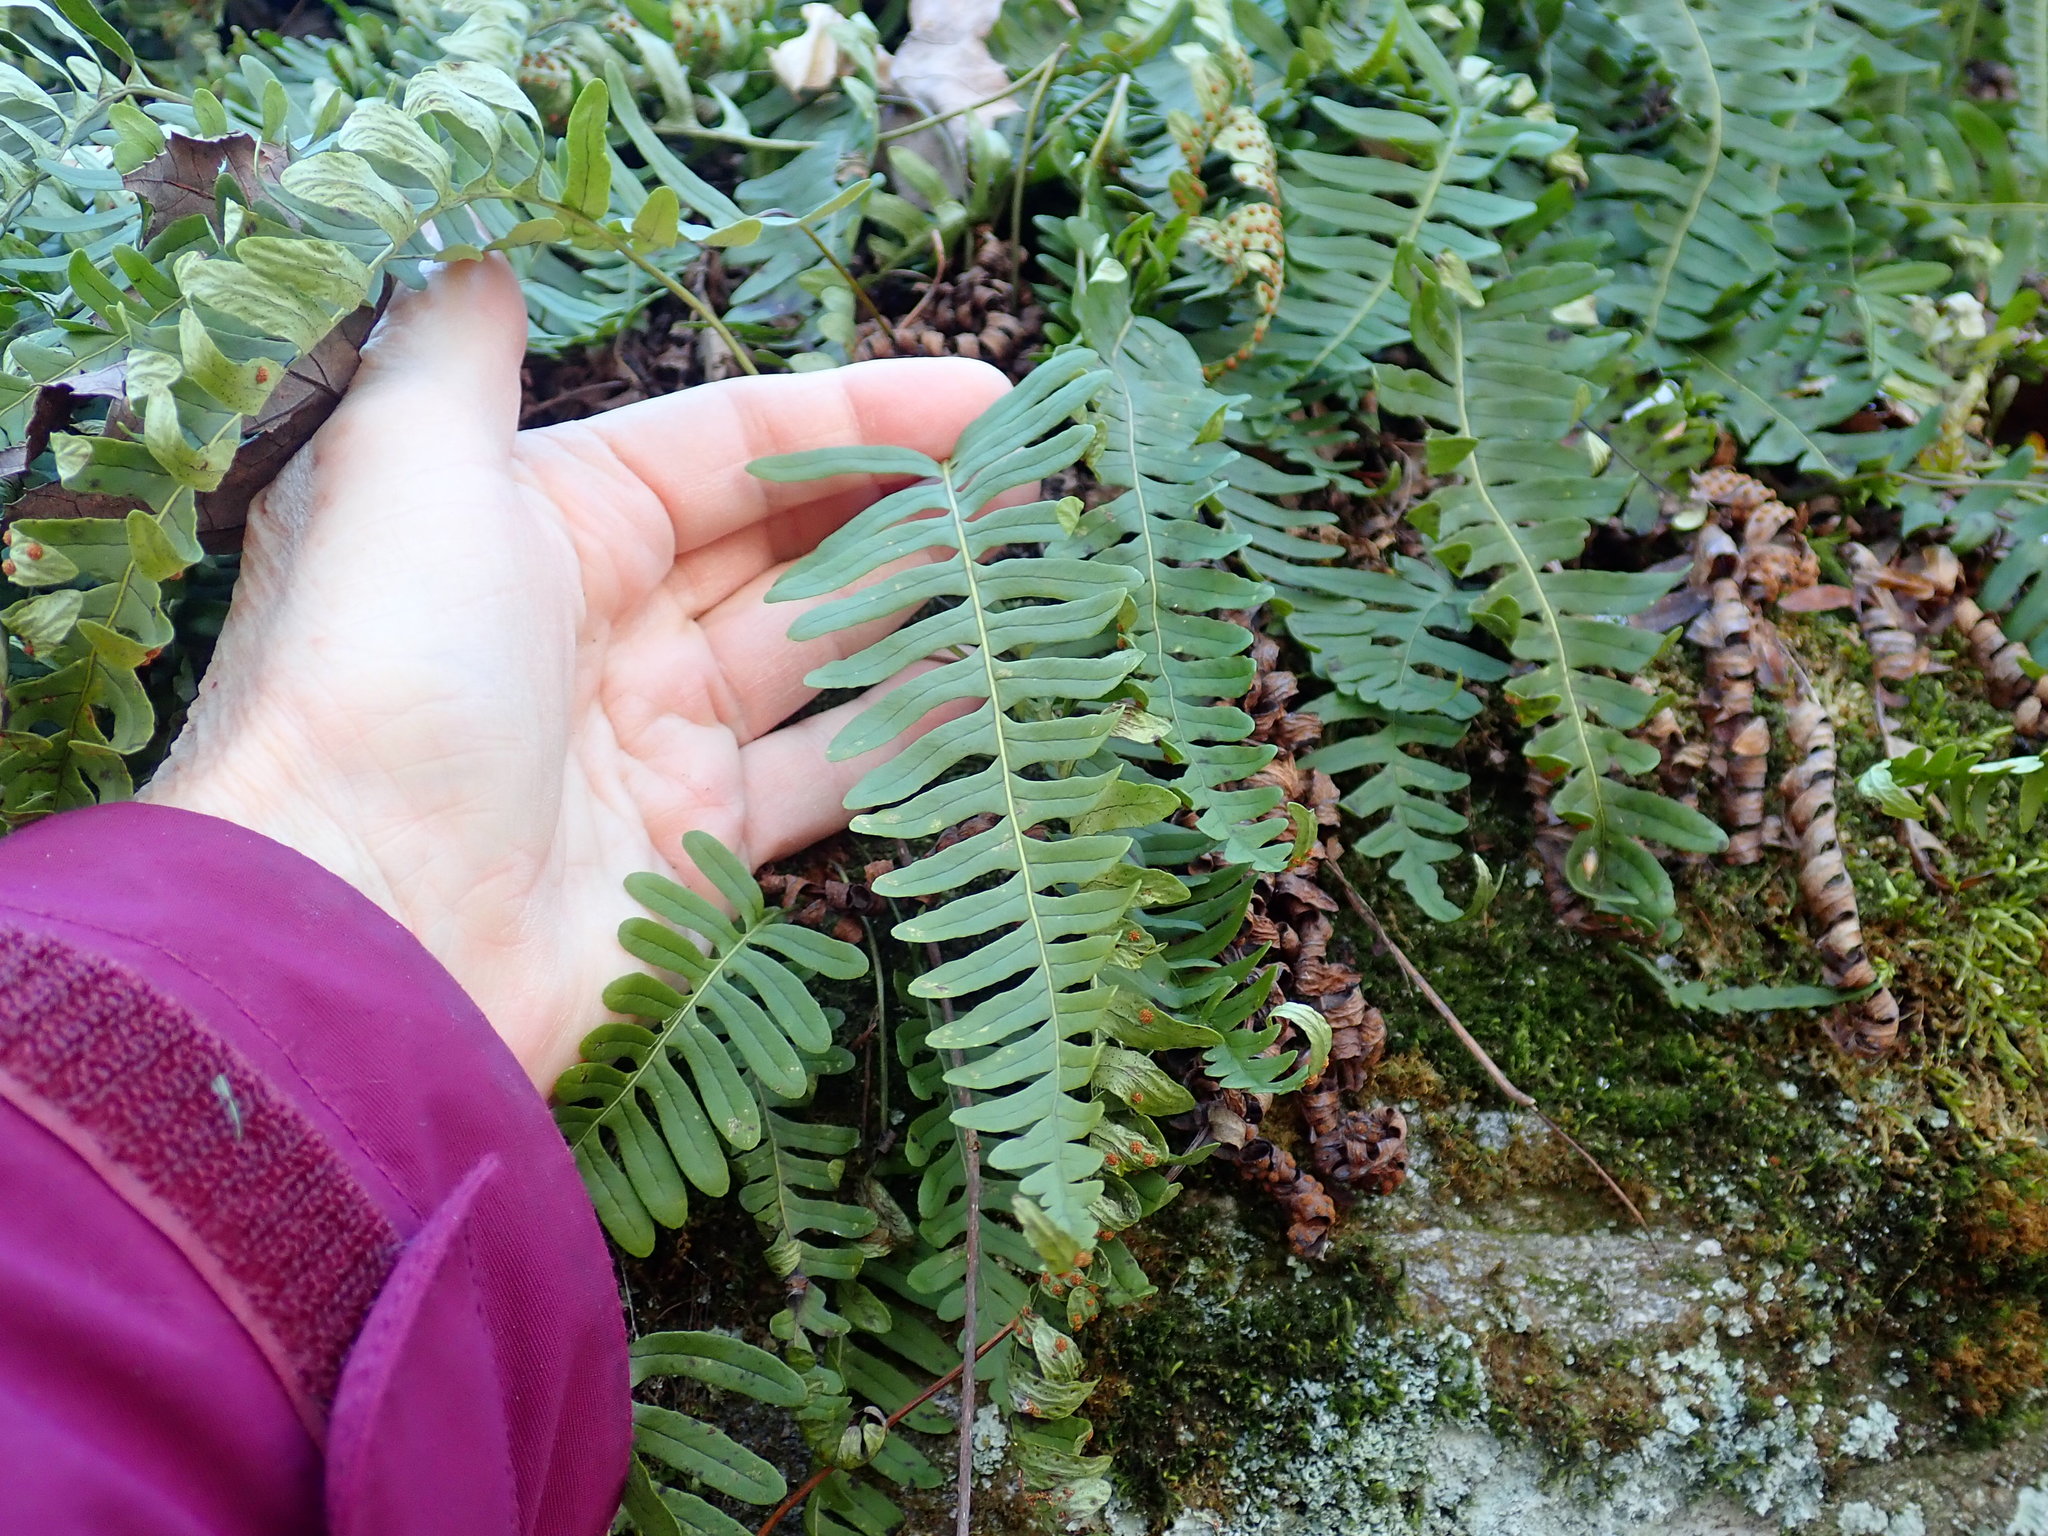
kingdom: Plantae
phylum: Tracheophyta
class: Polypodiopsida
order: Polypodiales
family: Polypodiaceae
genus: Polypodium
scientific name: Polypodium
